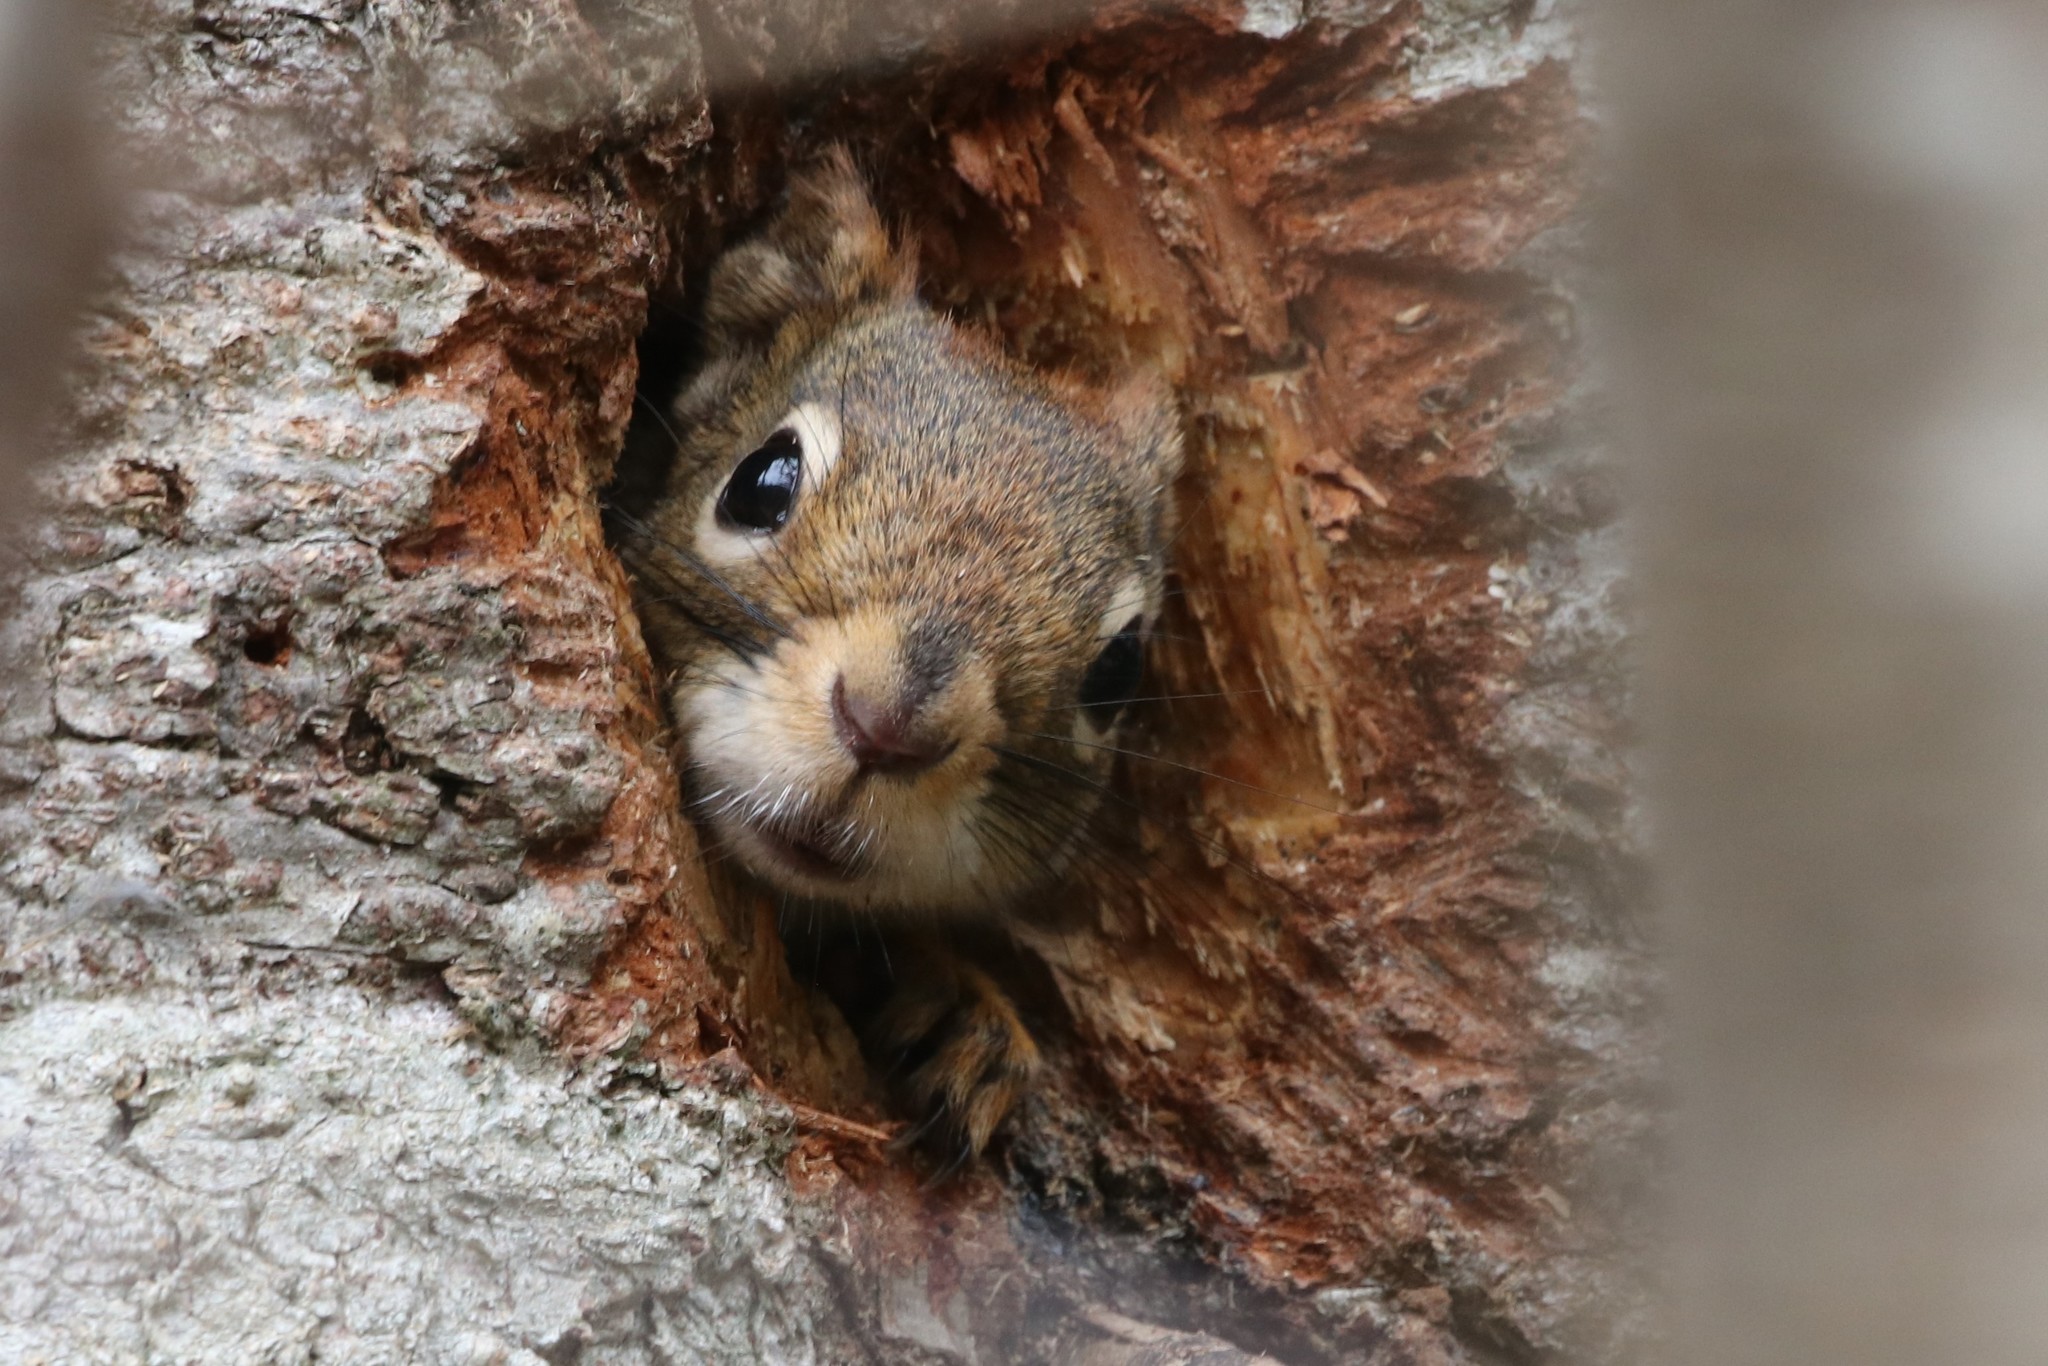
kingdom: Animalia
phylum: Chordata
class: Mammalia
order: Rodentia
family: Sciuridae
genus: Tamiasciurus
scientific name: Tamiasciurus hudsonicus
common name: Red squirrel
